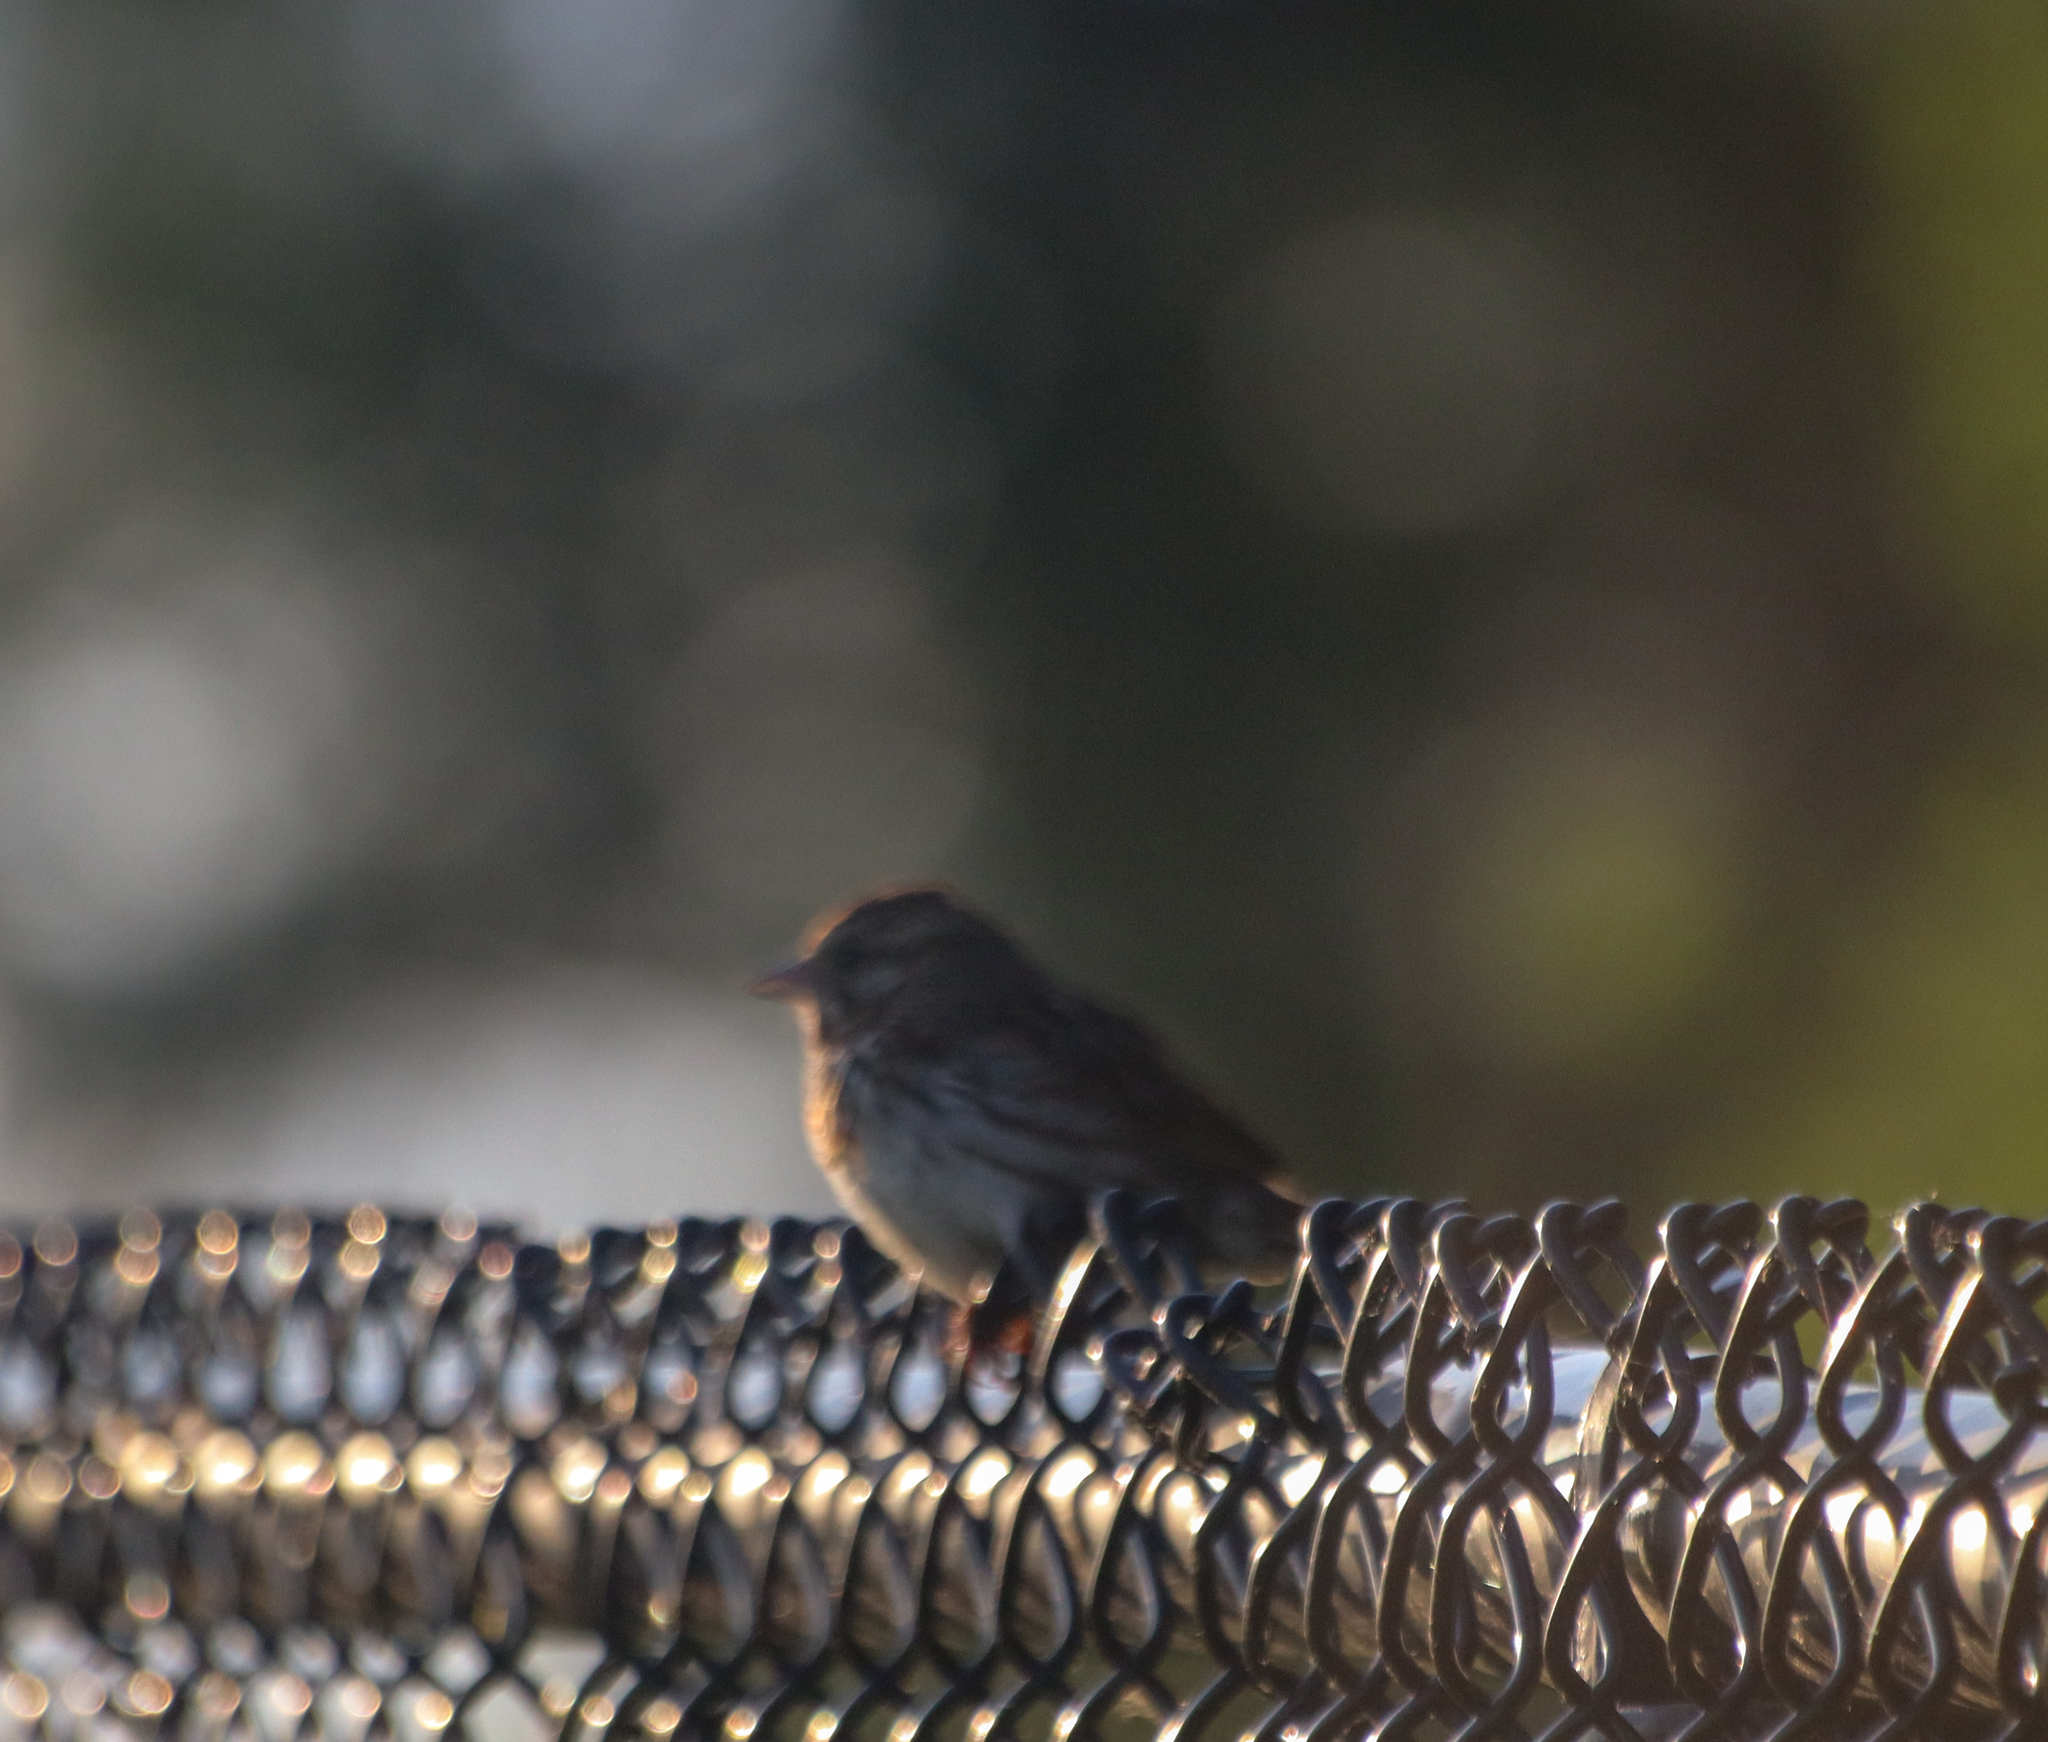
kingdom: Animalia
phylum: Chordata
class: Aves
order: Passeriformes
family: Passerellidae
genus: Melospiza
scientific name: Melospiza melodia
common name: Song sparrow
